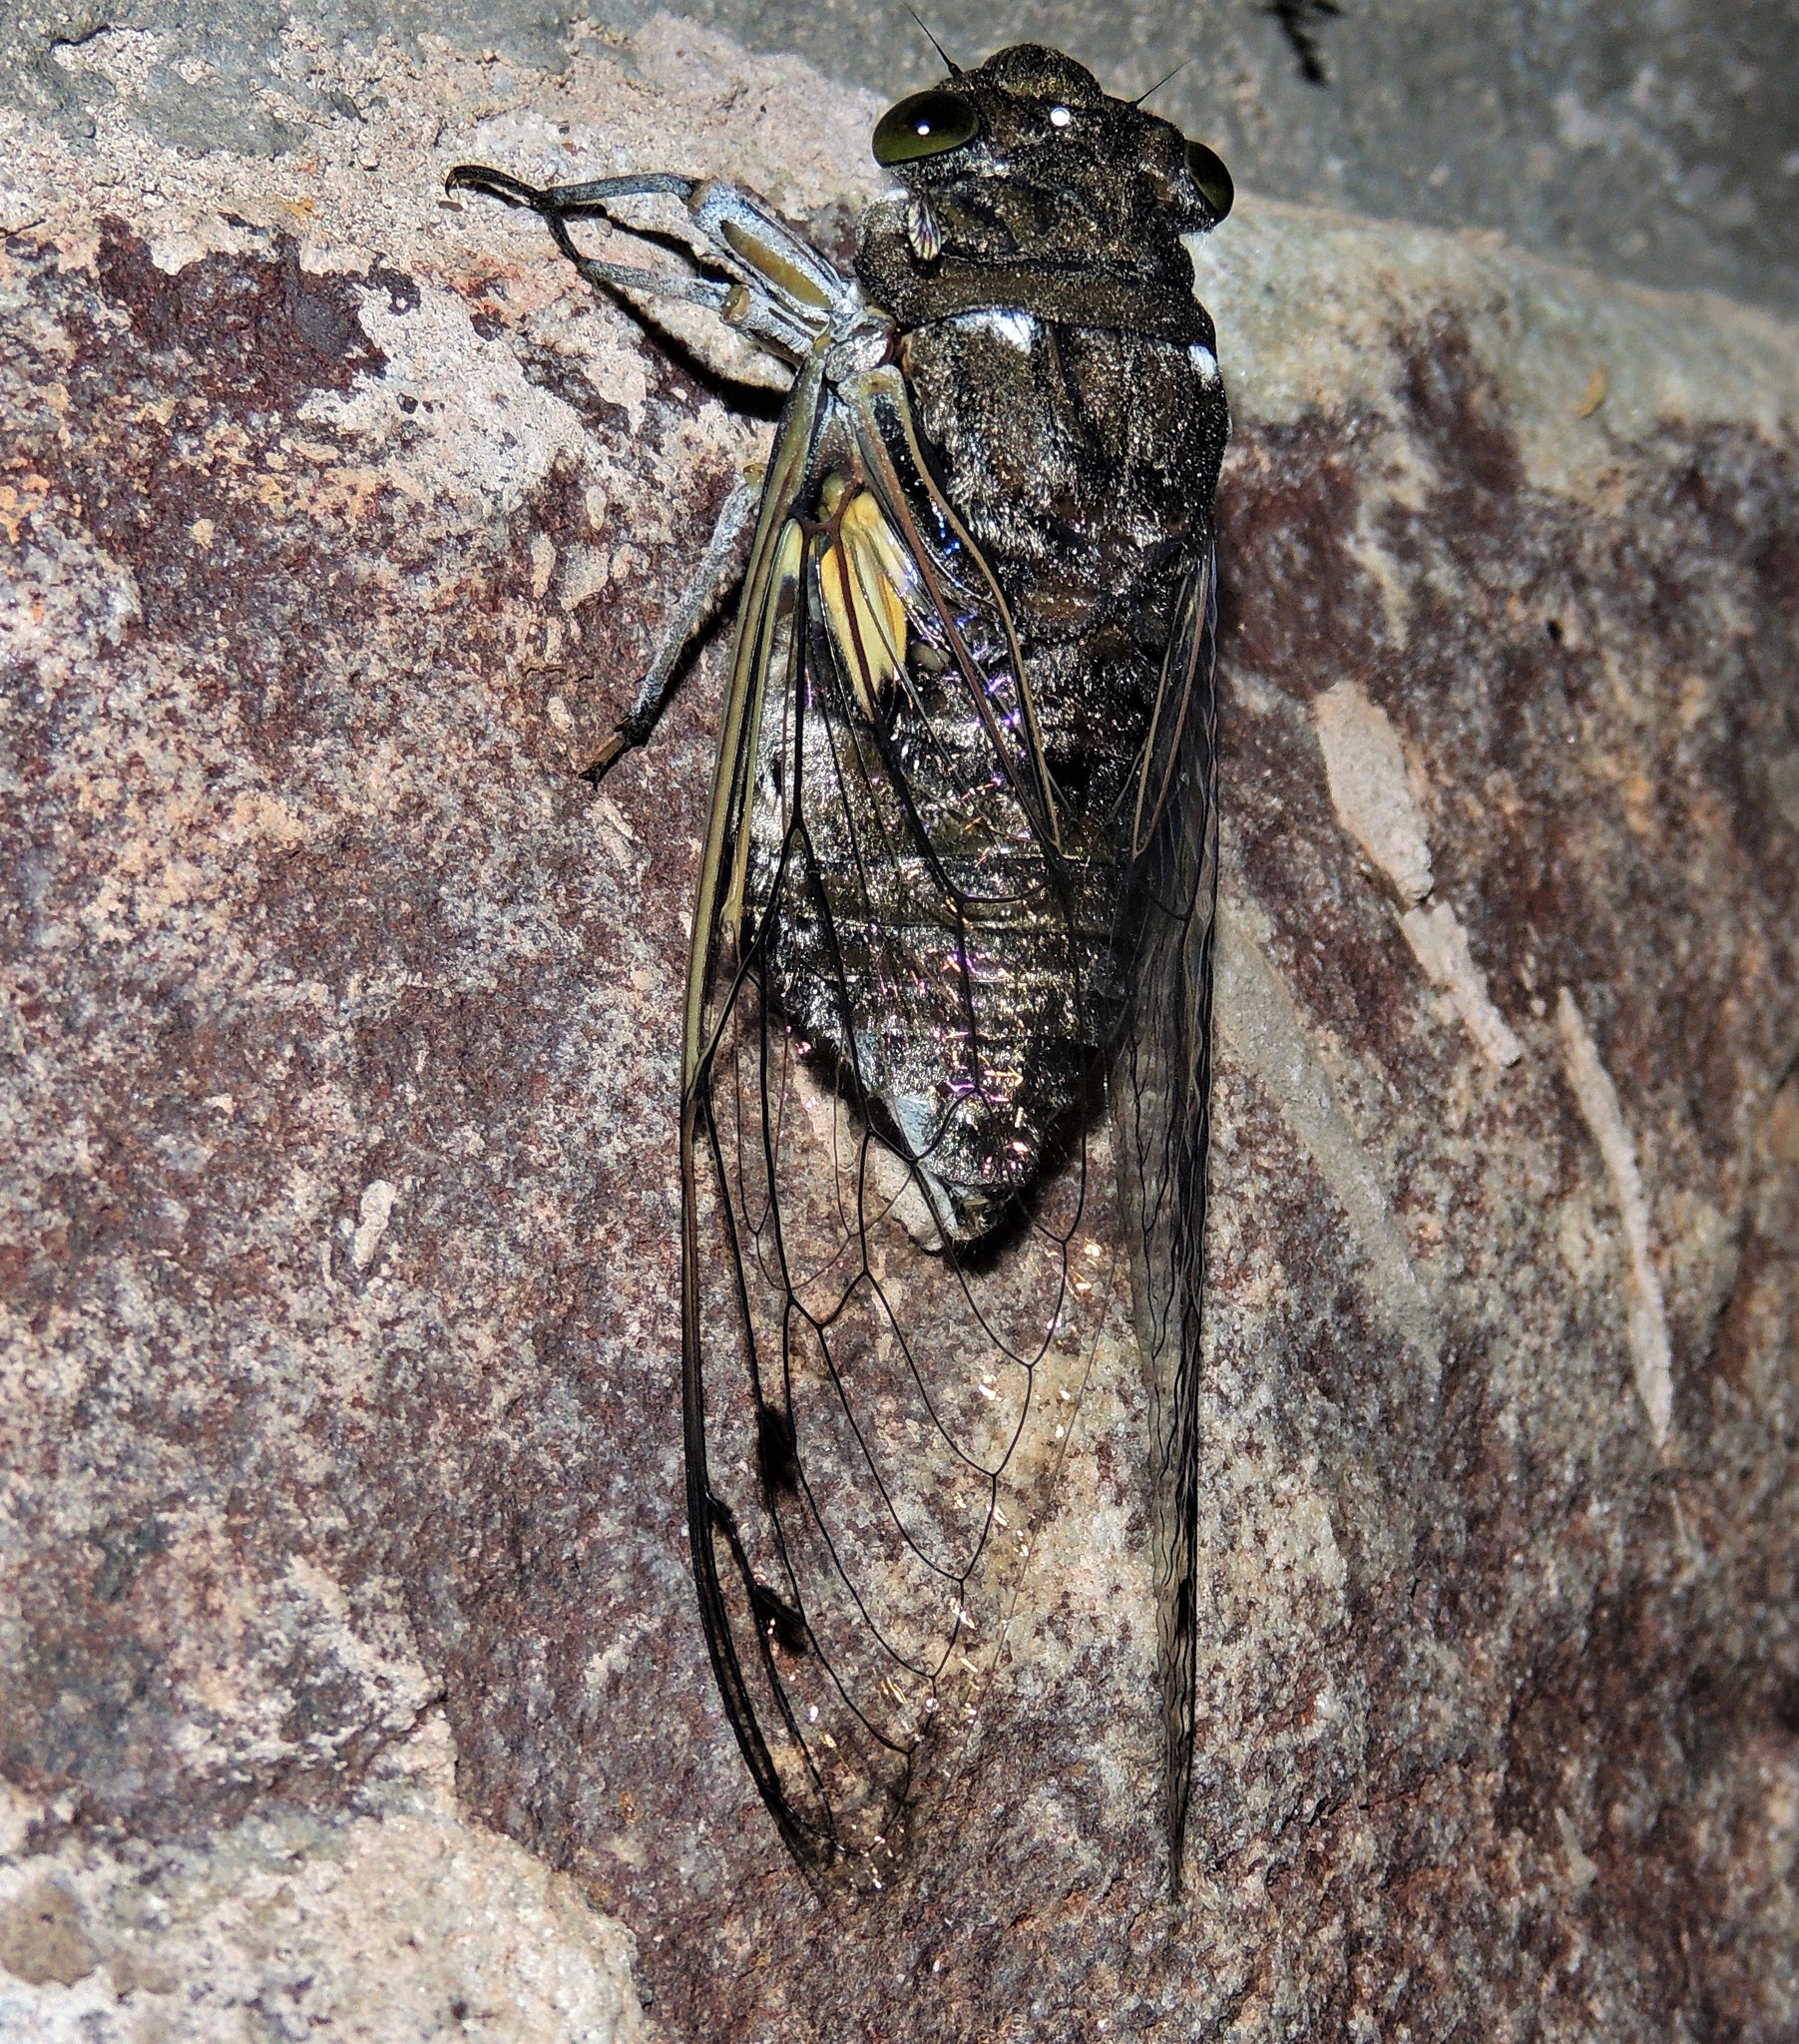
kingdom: Animalia
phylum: Arthropoda
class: Insecta
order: Hemiptera
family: Cicadidae
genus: Quesada
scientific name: Quesada gigas
